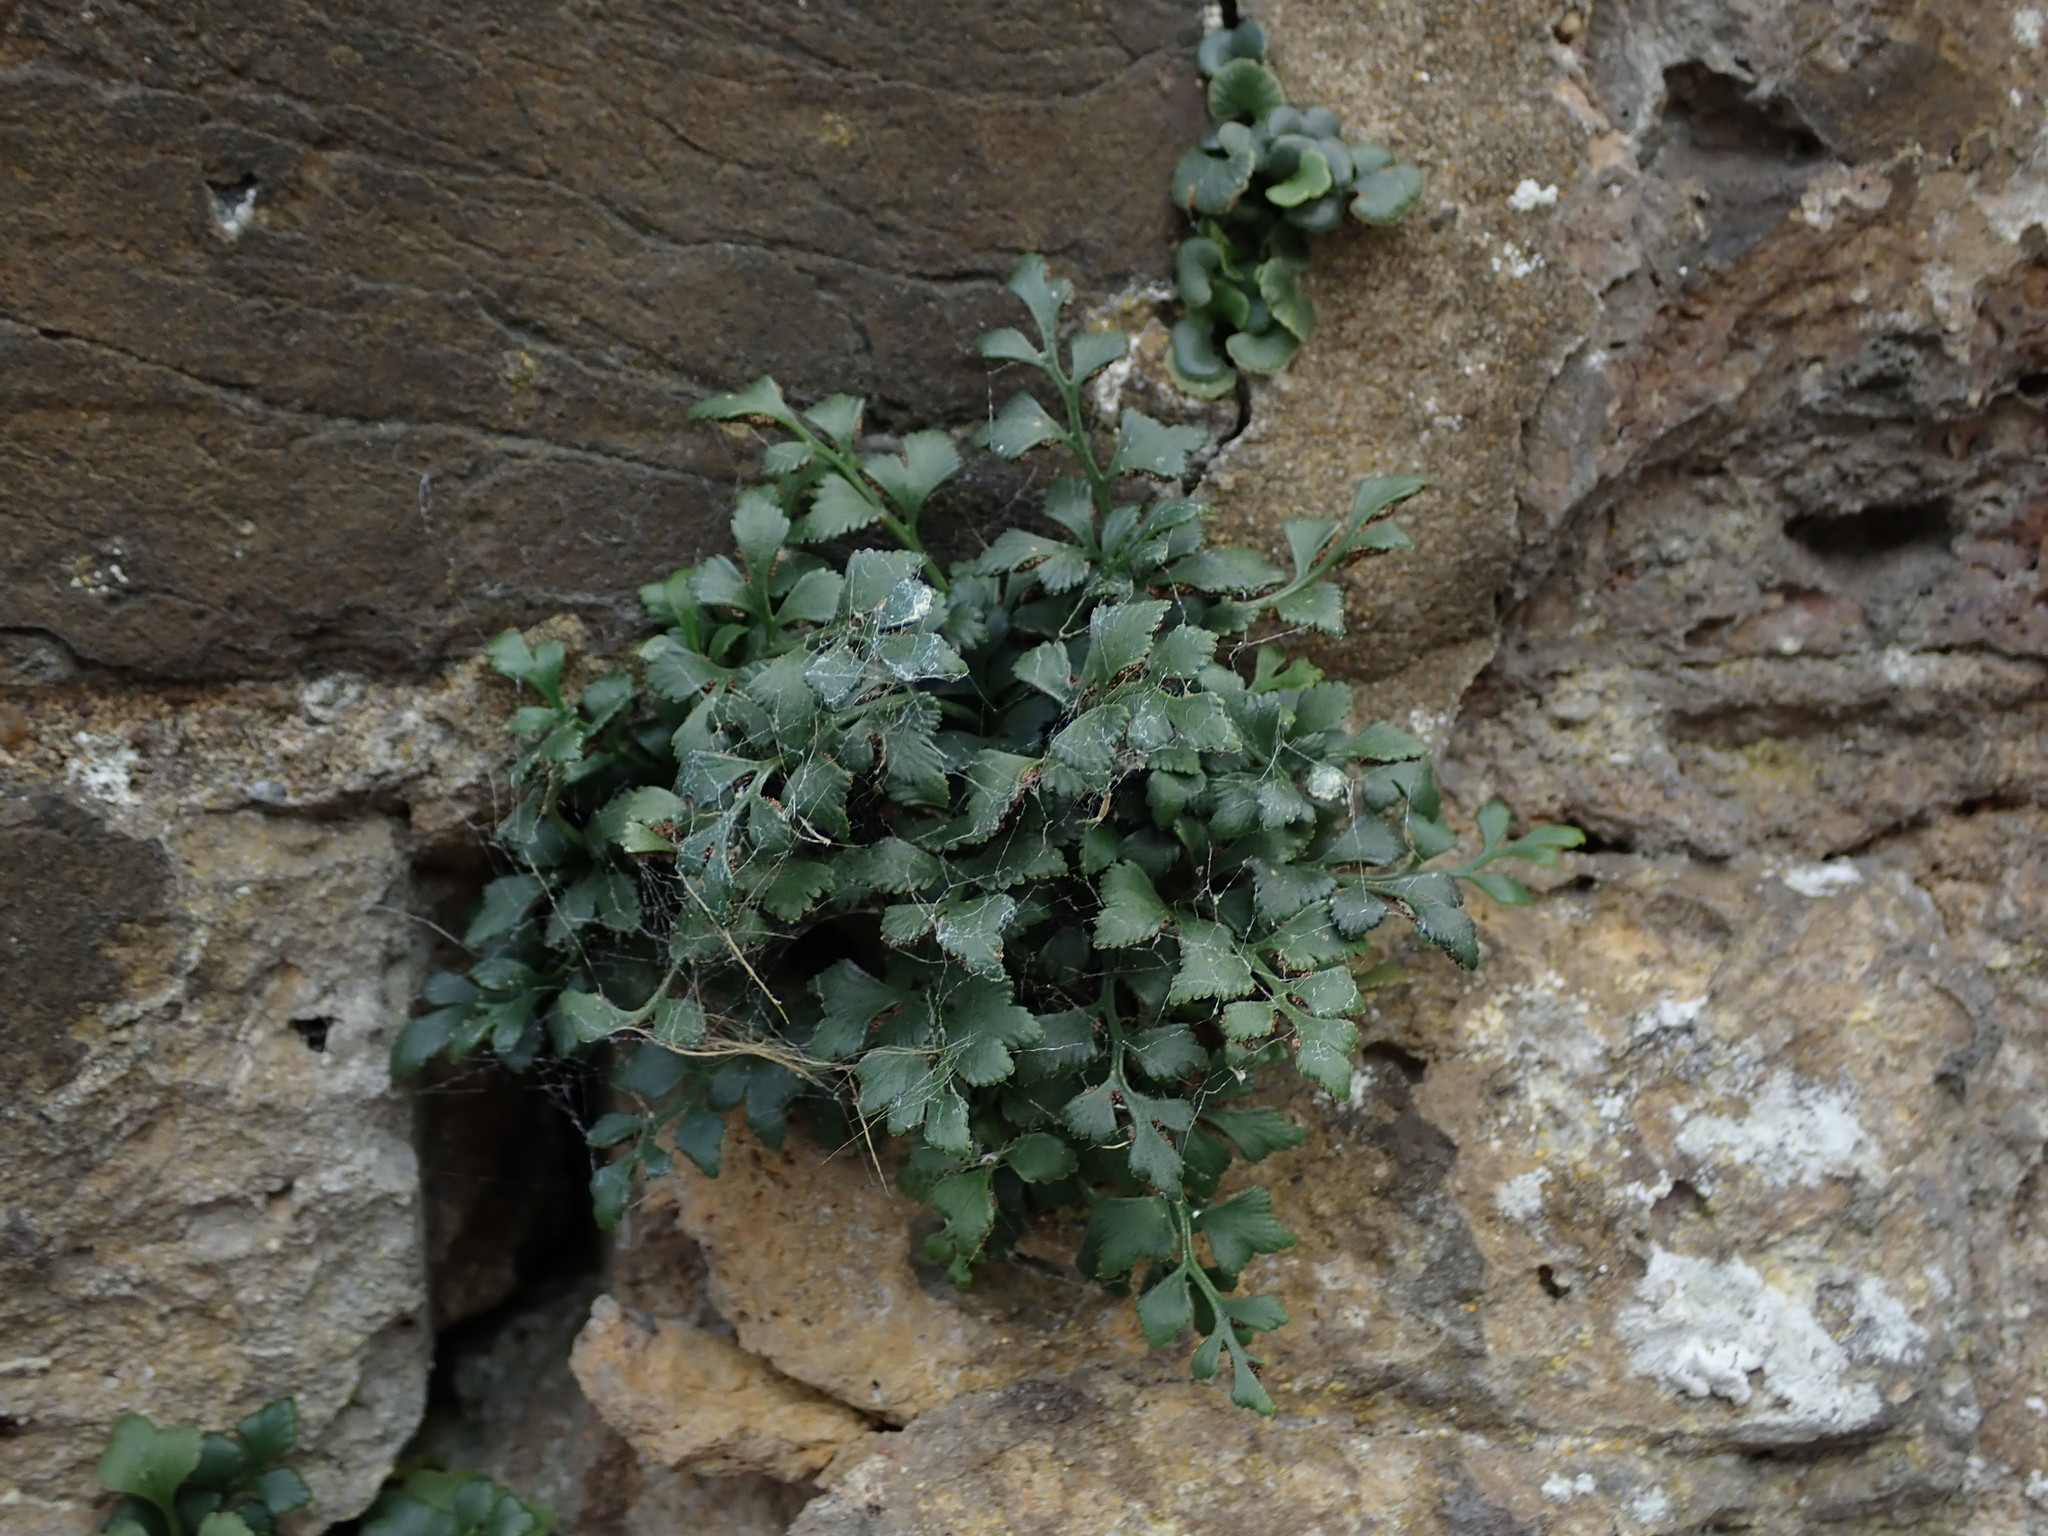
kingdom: Plantae
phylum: Tracheophyta
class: Polypodiopsida
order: Polypodiales
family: Aspleniaceae
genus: Asplenium
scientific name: Asplenium ruta-muraria
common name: Wall-rue
